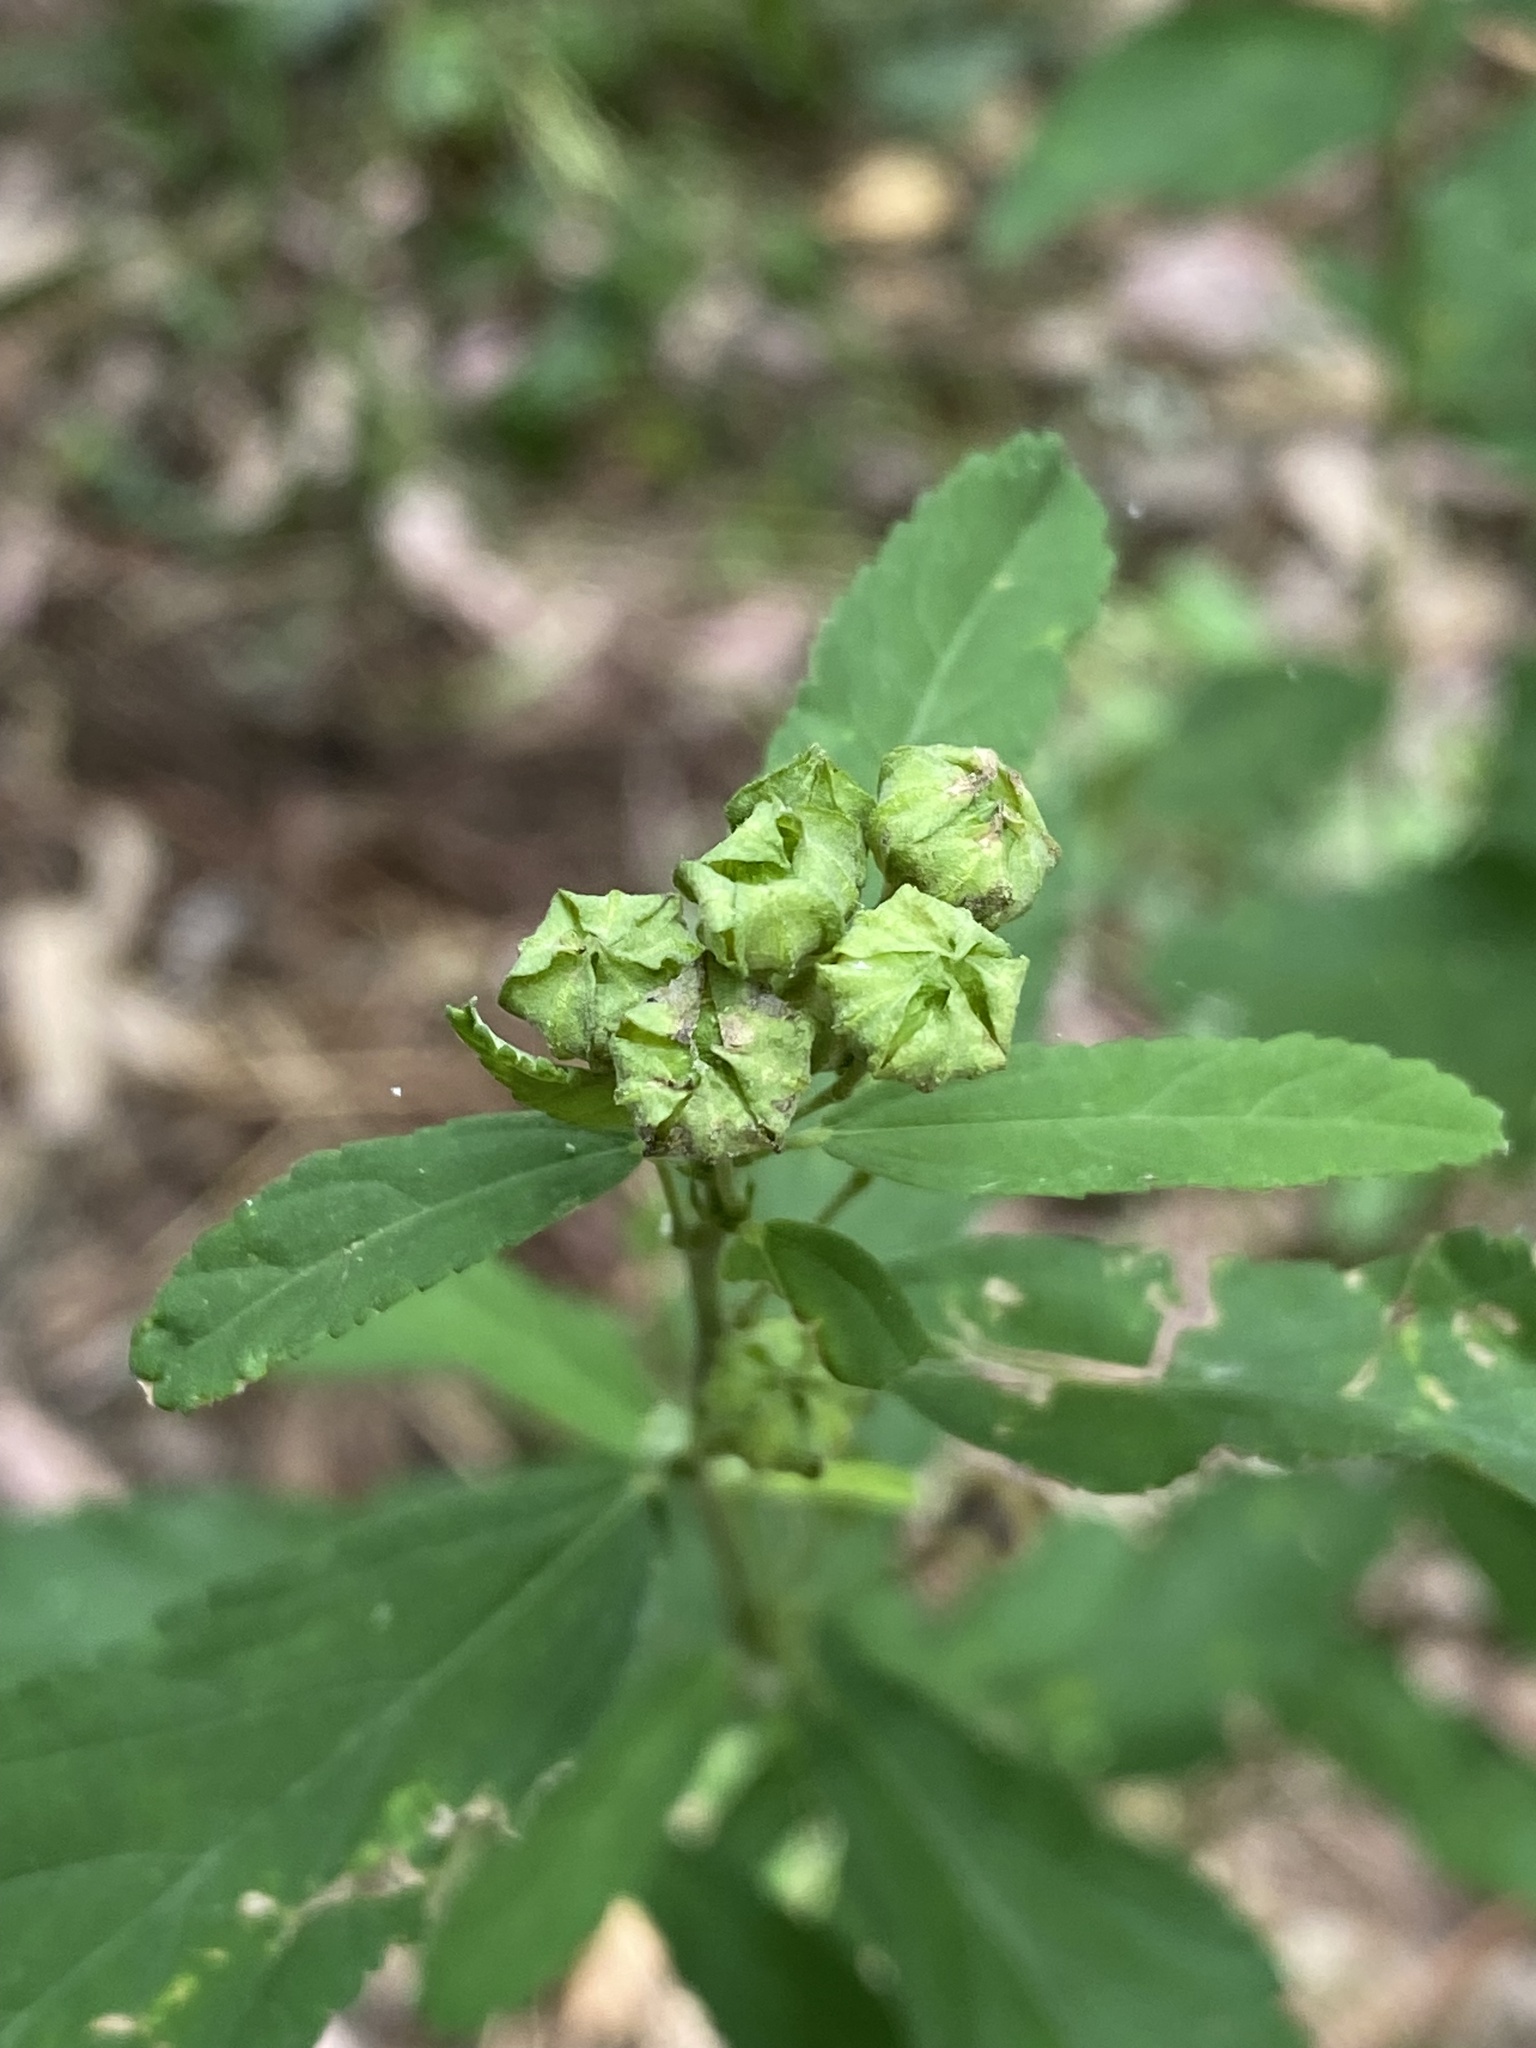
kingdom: Plantae
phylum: Tracheophyta
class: Magnoliopsida
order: Malvales
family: Malvaceae
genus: Sida
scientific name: Sida rhombifolia
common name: Queensland-hemp
